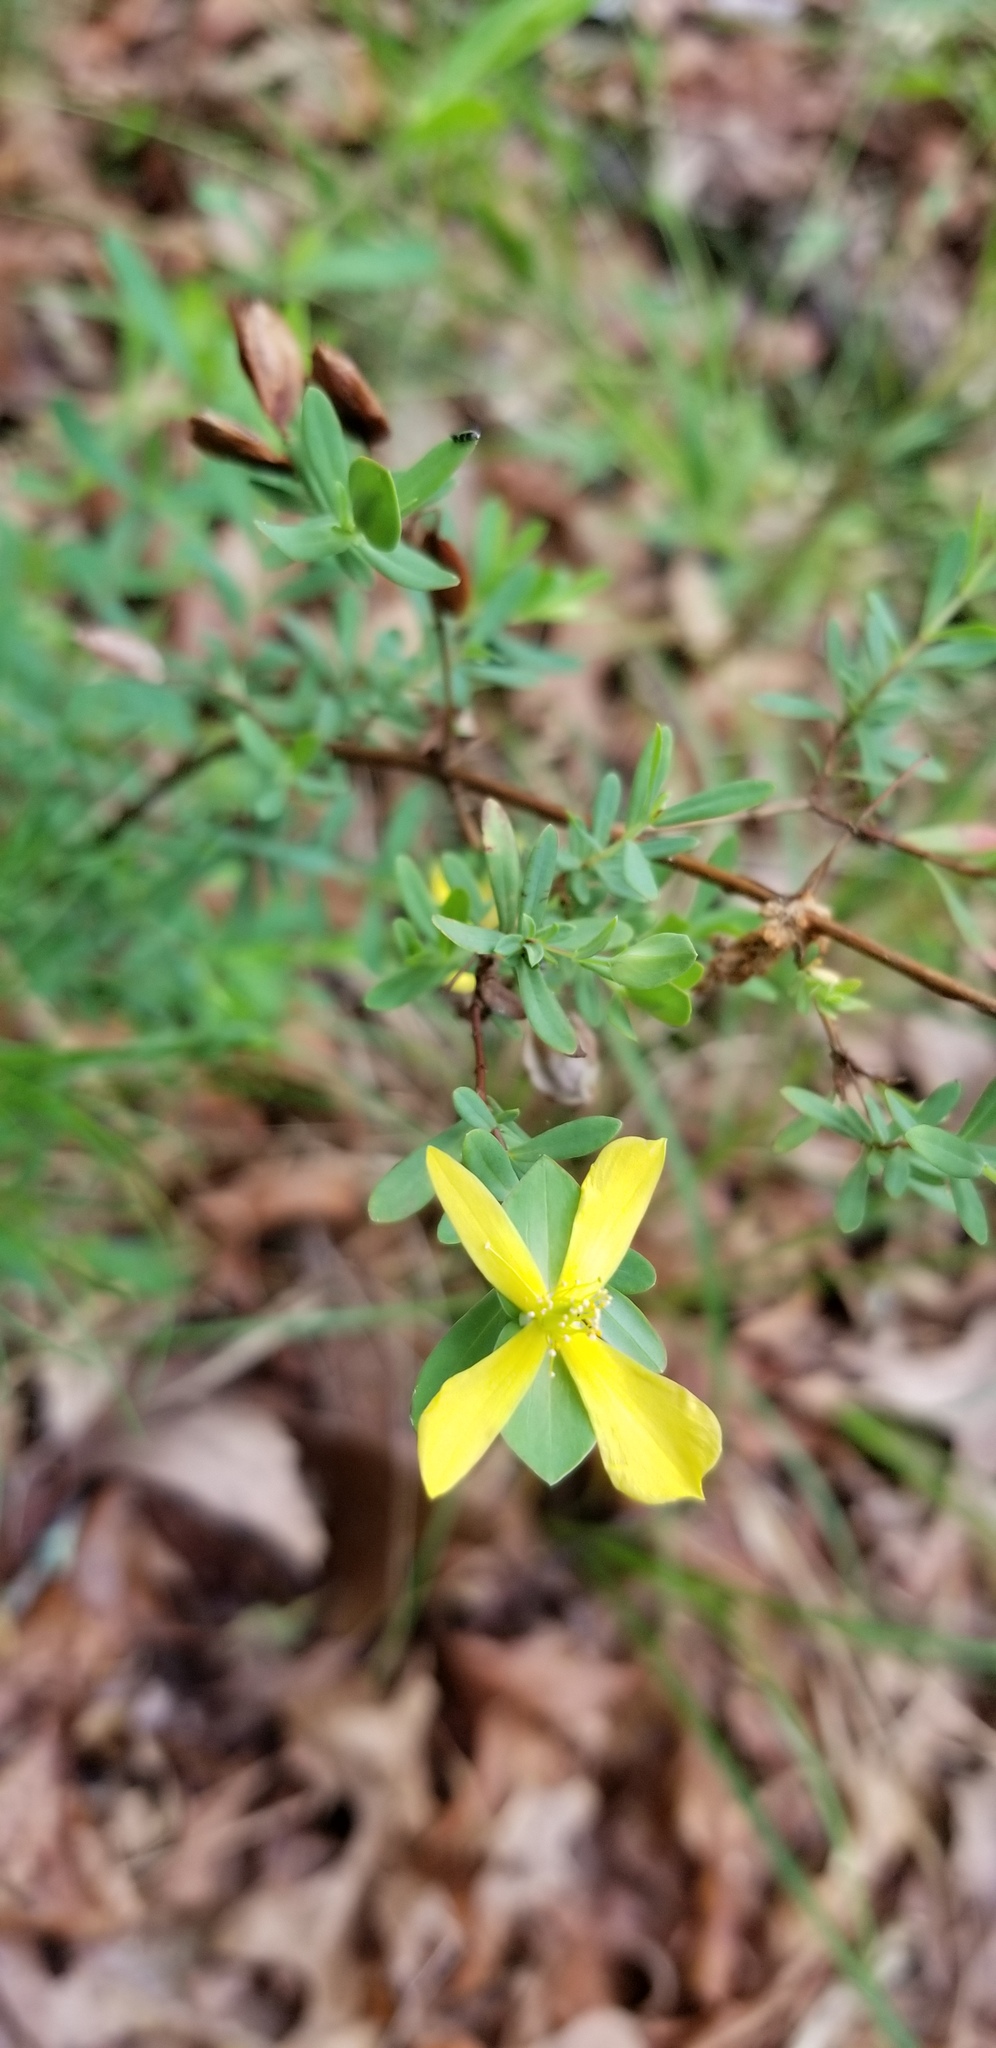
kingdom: Plantae
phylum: Tracheophyta
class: Magnoliopsida
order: Malpighiales
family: Hypericaceae
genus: Hypericum
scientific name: Hypericum hypericoides
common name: St. andrew's cross
